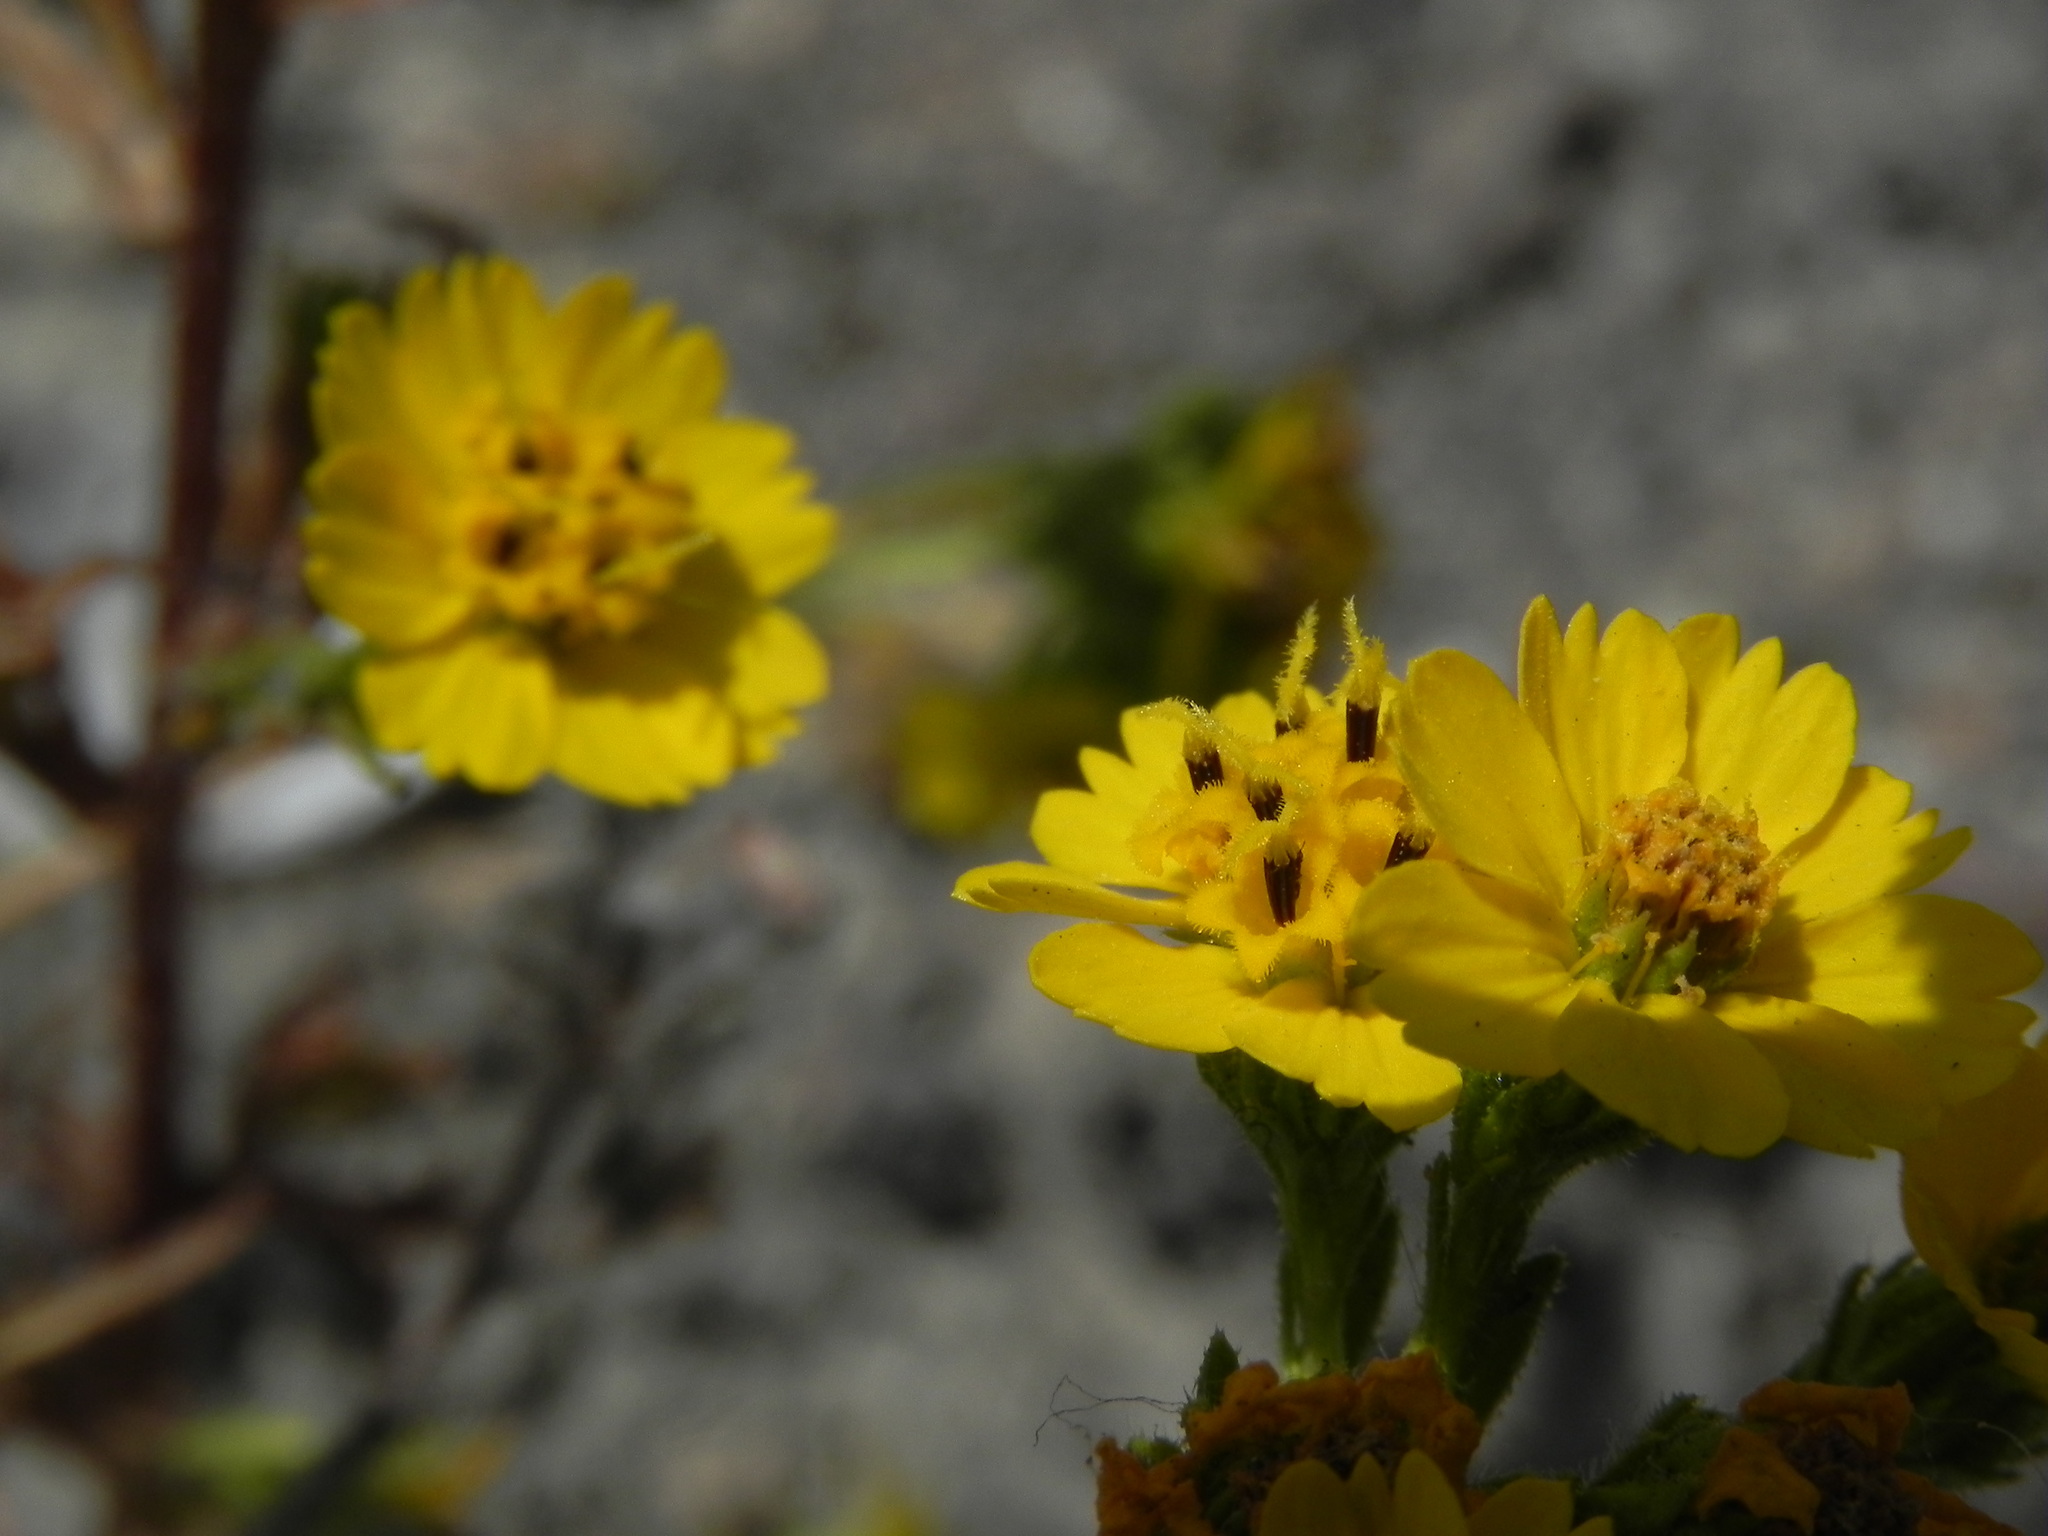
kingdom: Plantae
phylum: Tracheophyta
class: Magnoliopsida
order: Asterales
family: Asteraceae
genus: Deinandra
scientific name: Deinandra conjugens
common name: Otay tarplant
